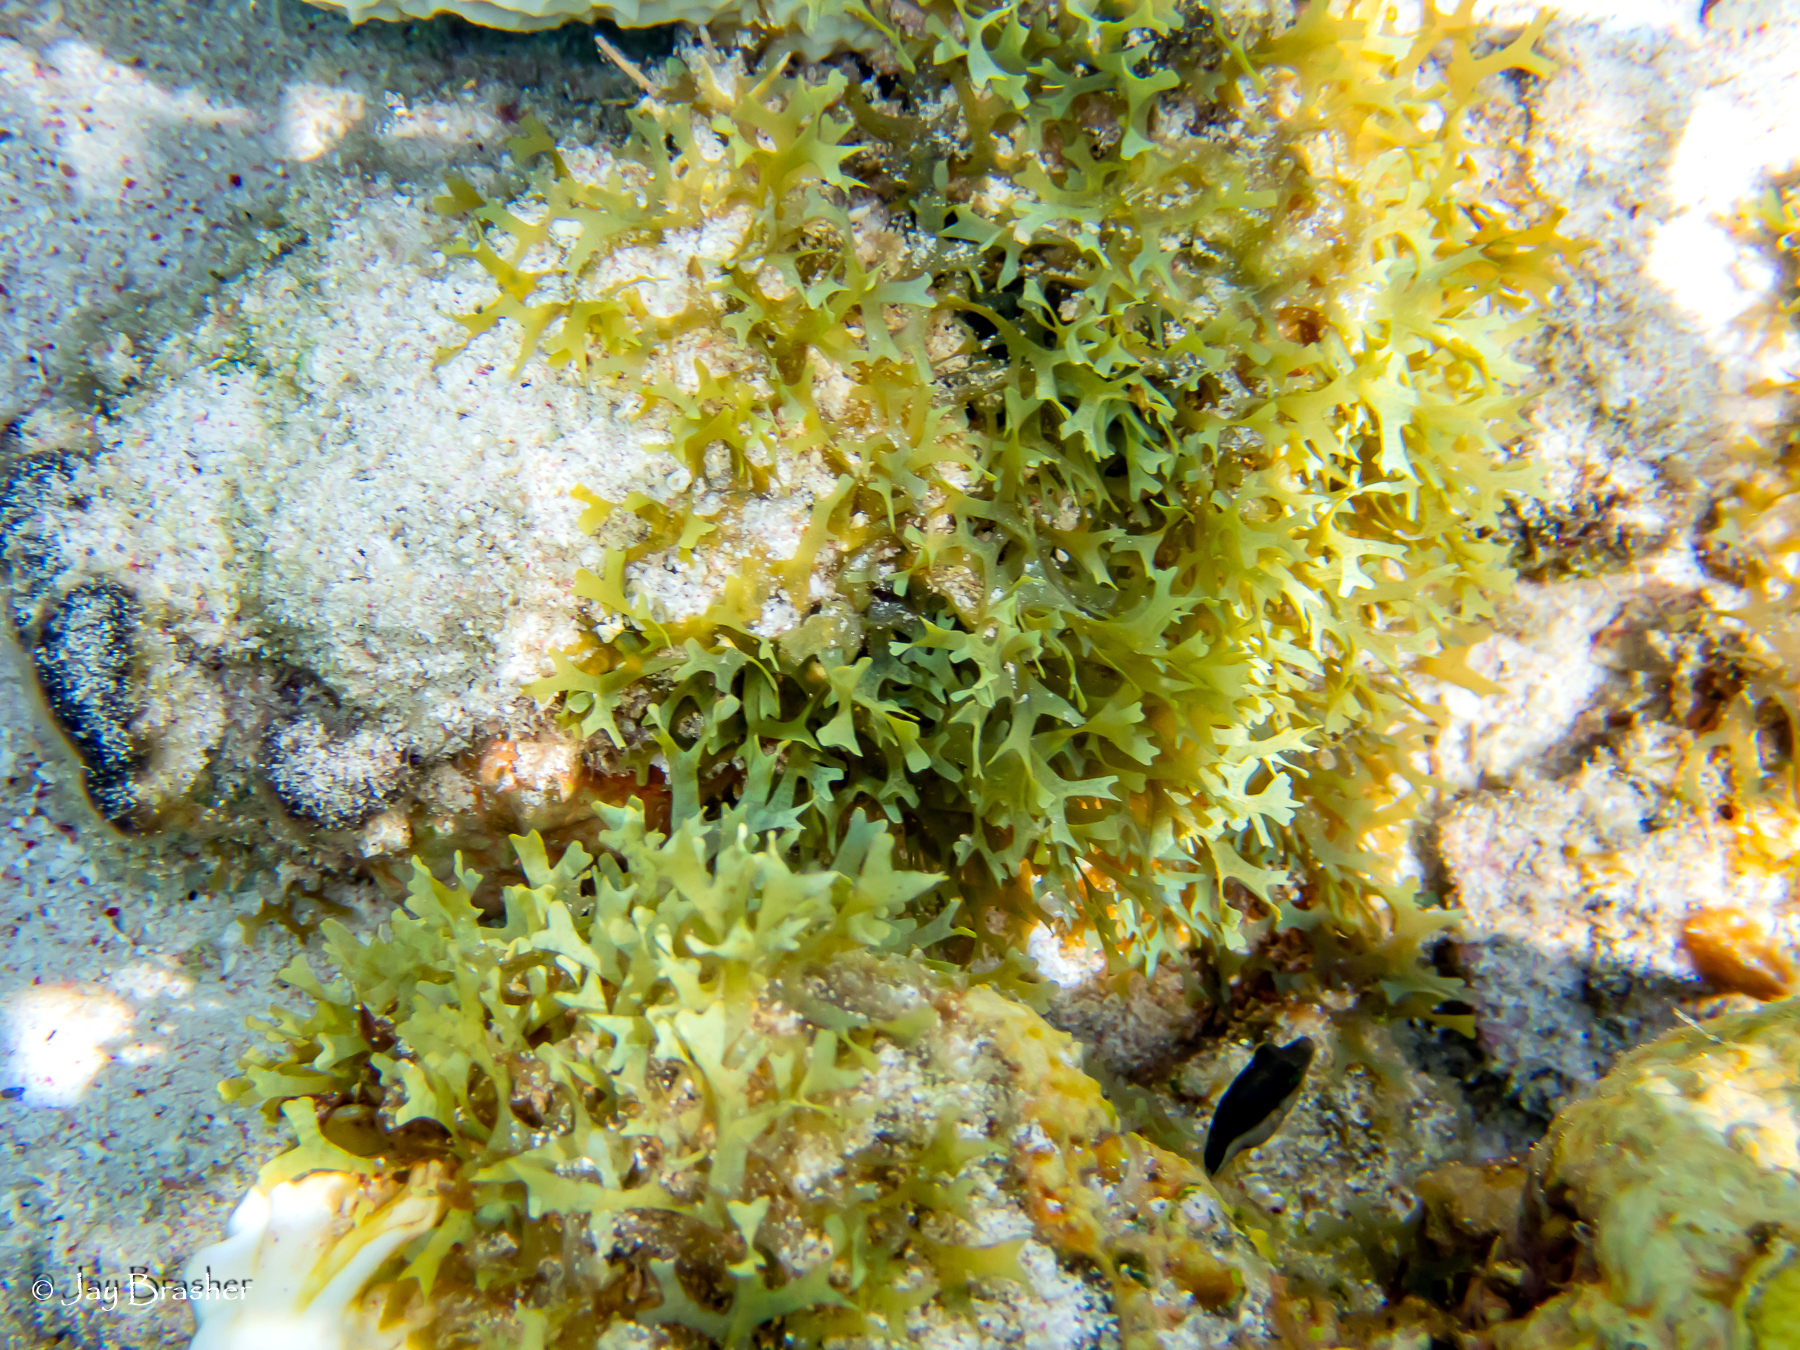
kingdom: Animalia
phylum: Chordata
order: Tetraodontiformes
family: Tetraodontidae
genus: Canthigaster
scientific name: Canthigaster rostrata
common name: Caribbean sharpnose-puffer
